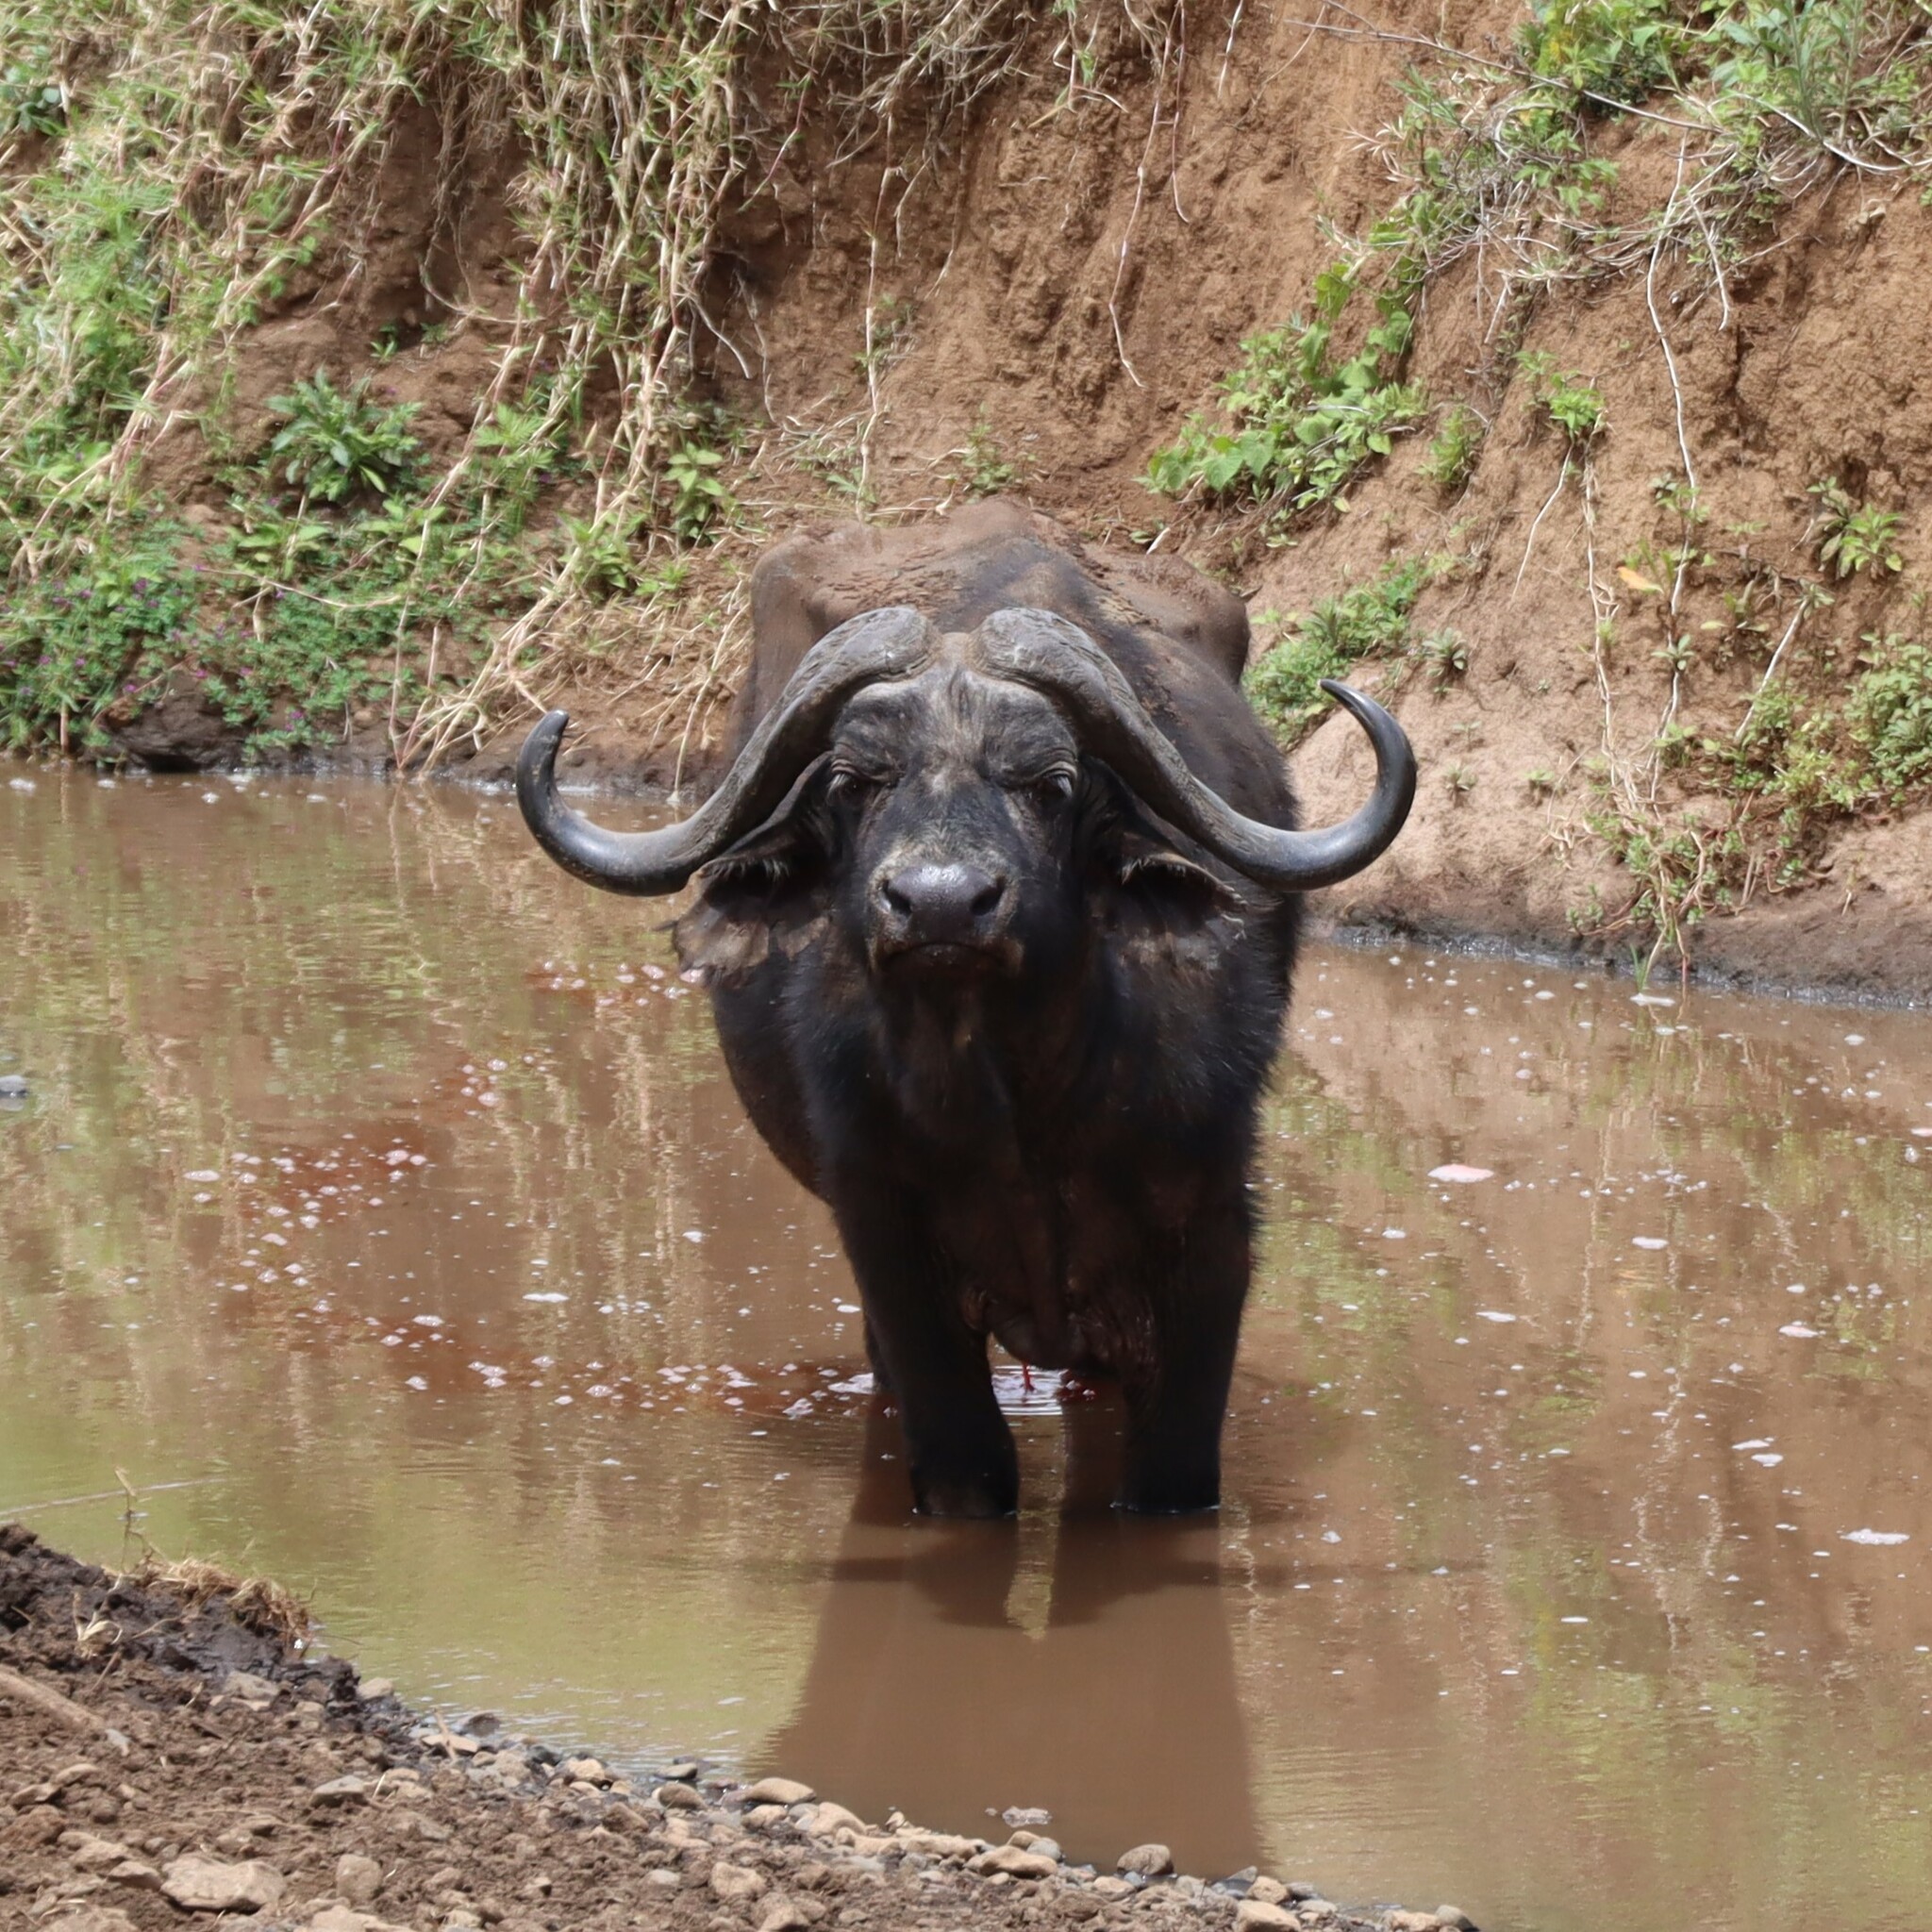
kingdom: Animalia
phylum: Chordata
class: Mammalia
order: Artiodactyla
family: Bovidae
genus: Syncerus
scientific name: Syncerus caffer
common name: African buffalo
